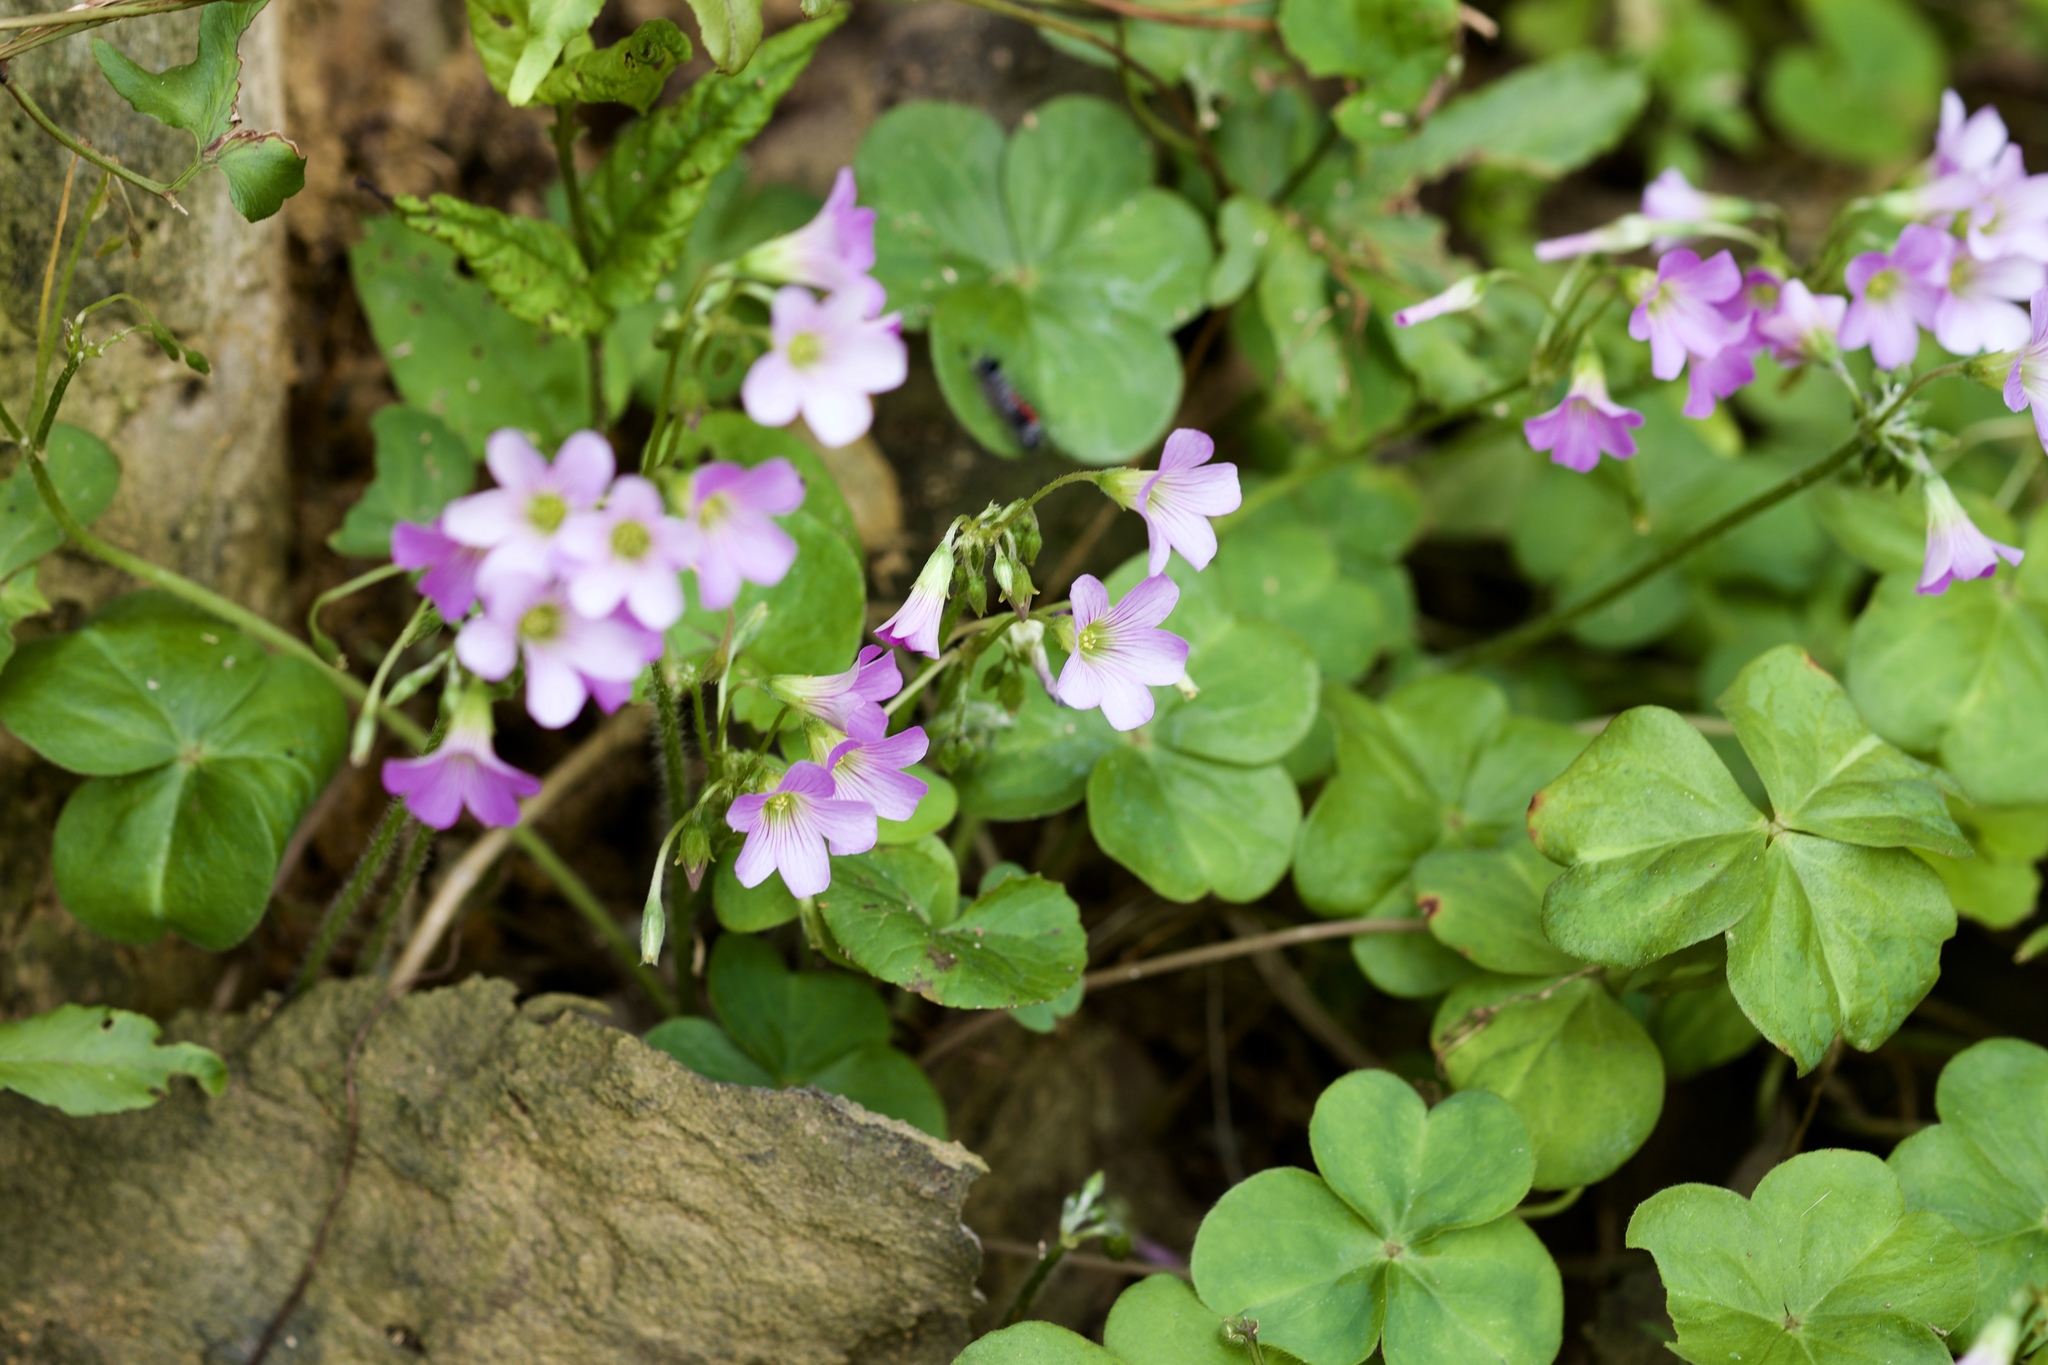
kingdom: Plantae
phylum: Tracheophyta
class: Magnoliopsida
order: Oxalidales
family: Oxalidaceae
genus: Oxalis
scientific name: Oxalis debilis
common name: Large-flowered pink-sorrel
